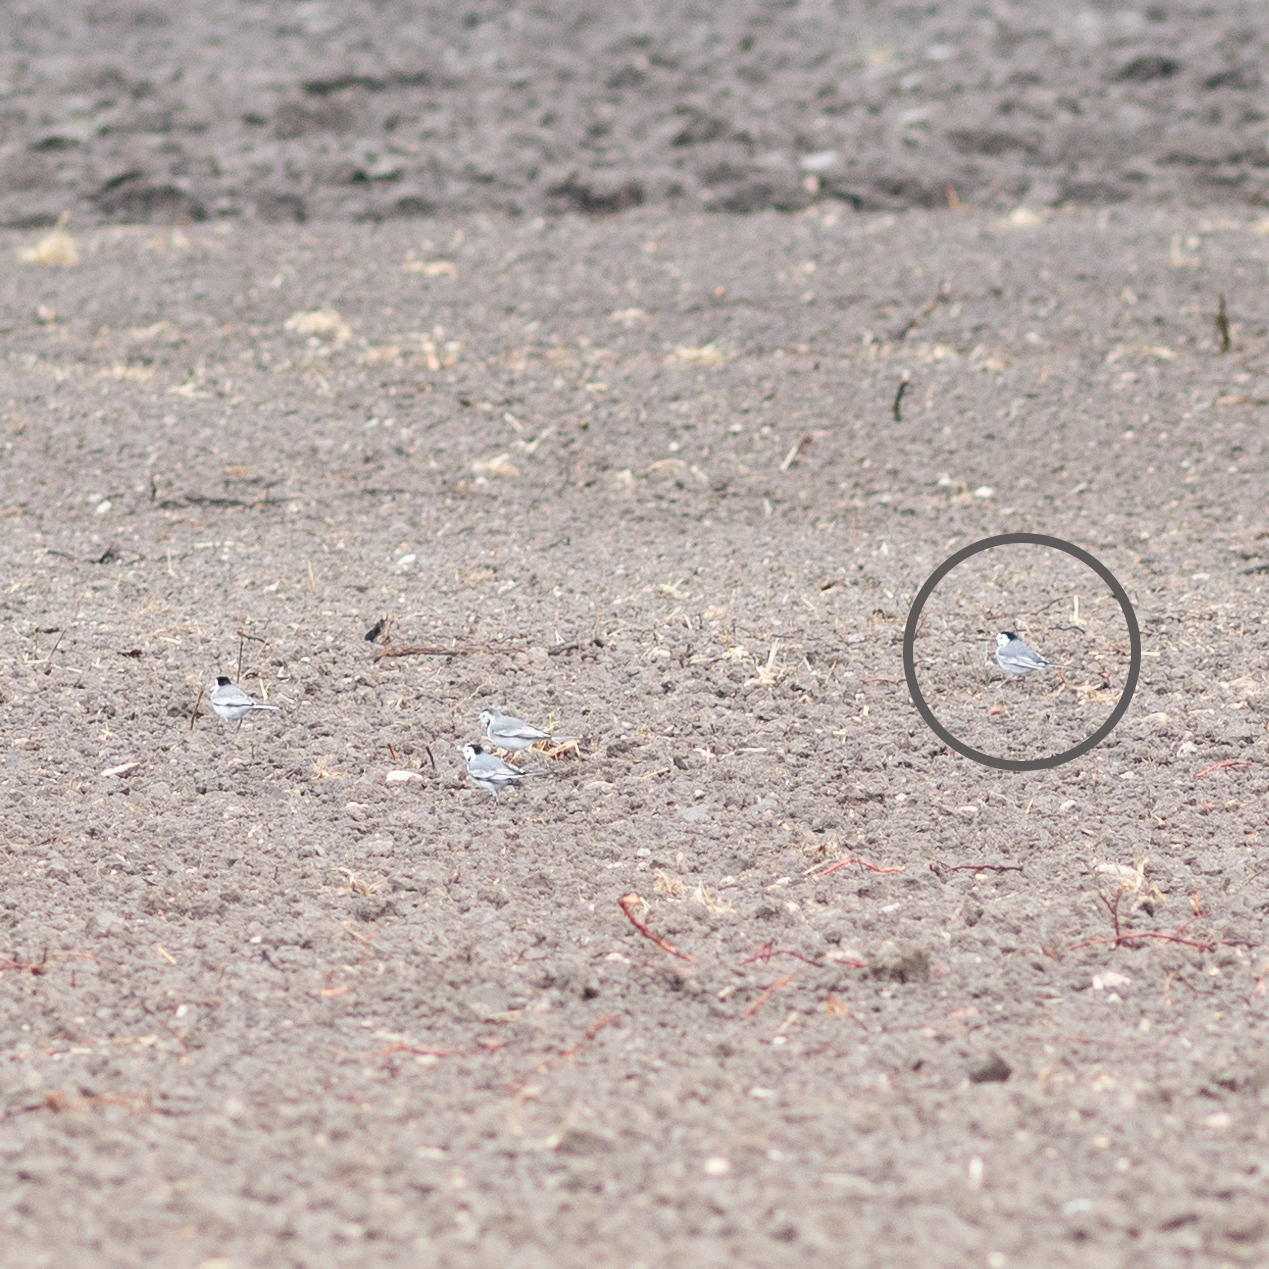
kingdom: Animalia
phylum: Chordata
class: Aves
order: Passeriformes
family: Motacillidae
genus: Motacilla
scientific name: Motacilla alba
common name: White wagtail
